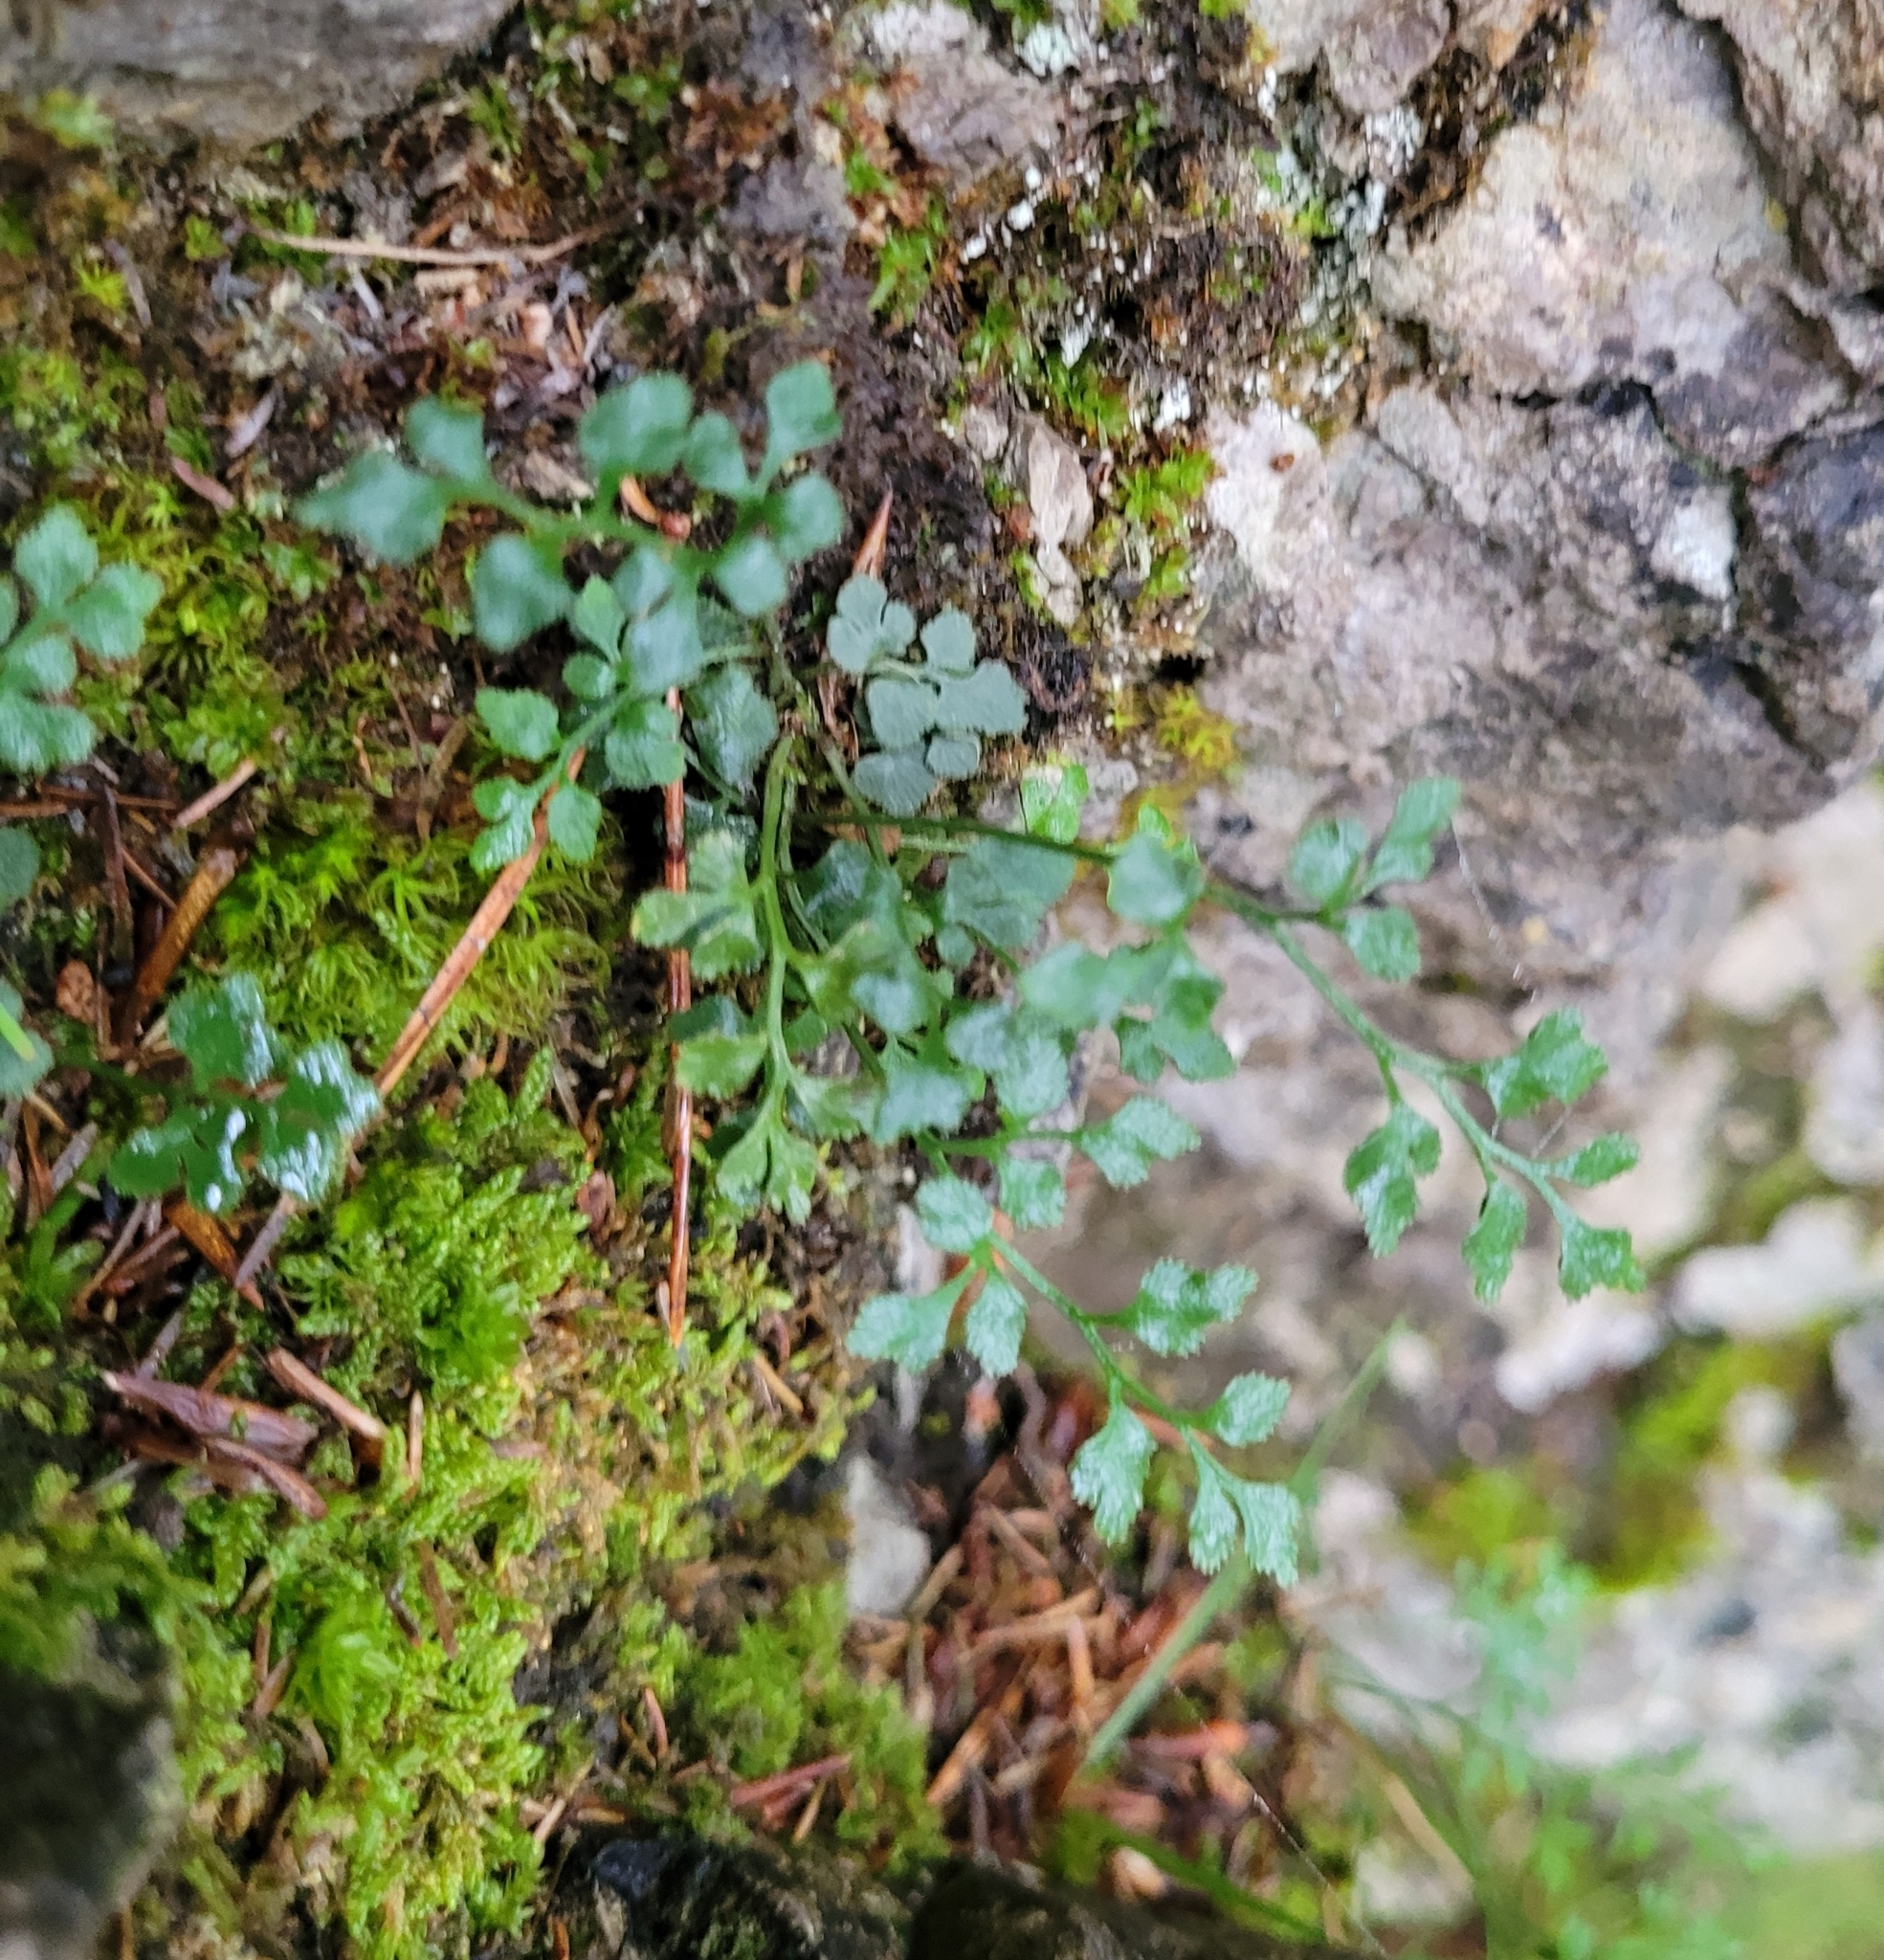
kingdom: Plantae
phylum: Tracheophyta
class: Polypodiopsida
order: Polypodiales
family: Aspleniaceae
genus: Asplenium
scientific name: Asplenium ruta-muraria
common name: Wall-rue
